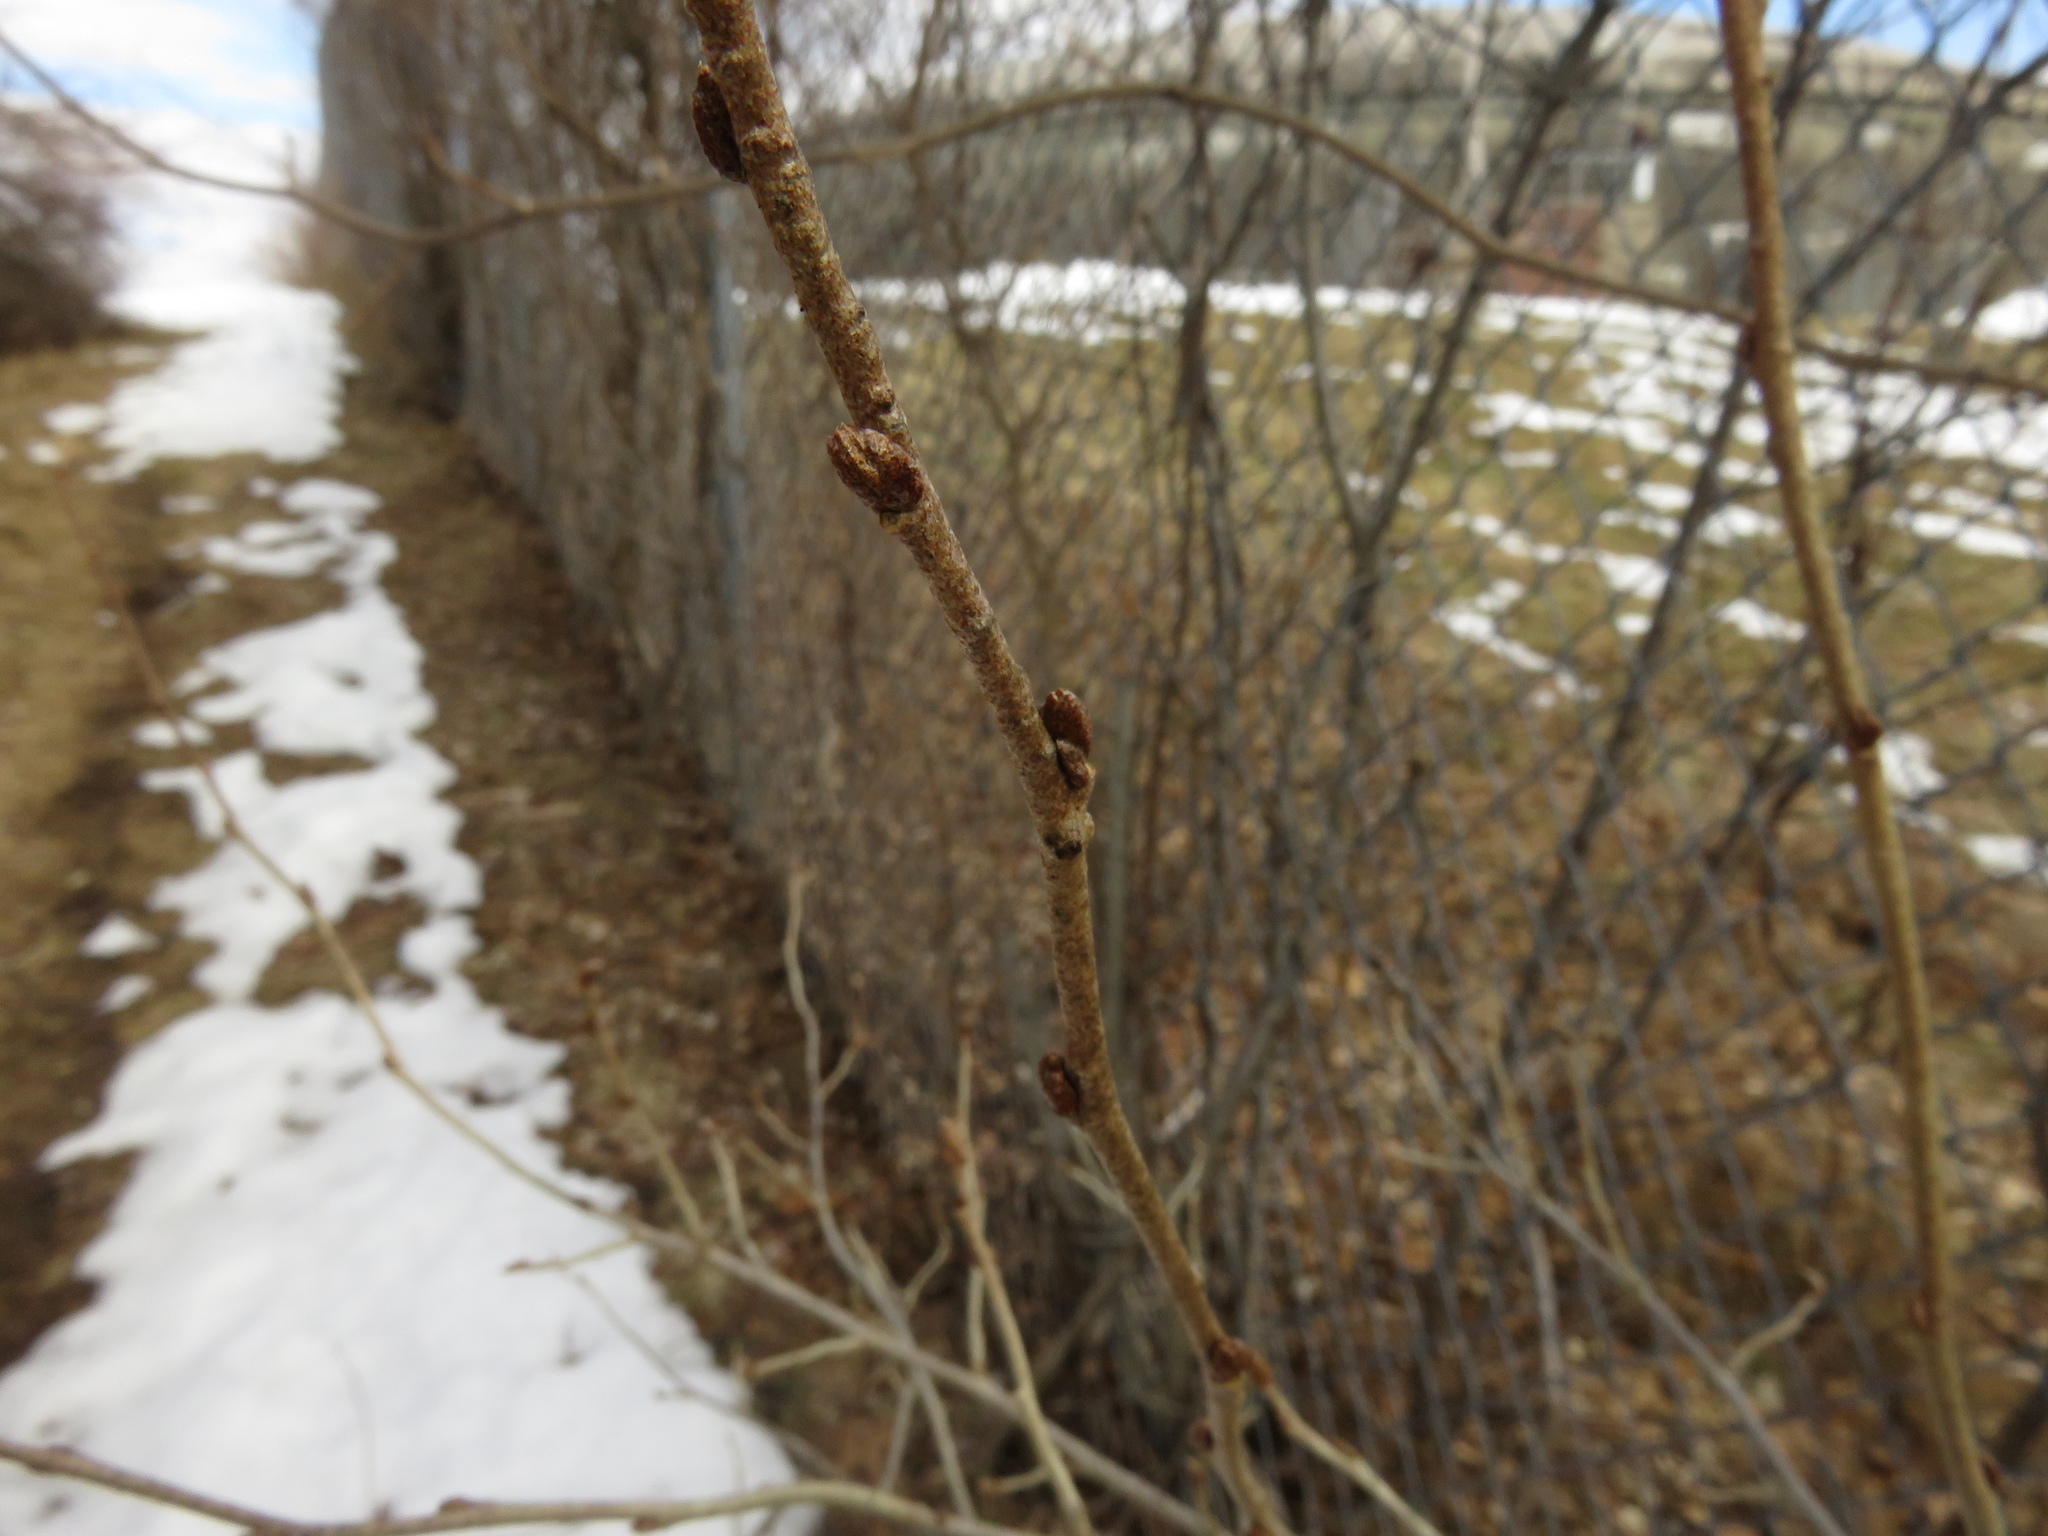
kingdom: Plantae
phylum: Tracheophyta
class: Magnoliopsida
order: Rosales
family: Elaeagnaceae
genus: Elaeagnus
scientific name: Elaeagnus umbellata
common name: Autumn olive
